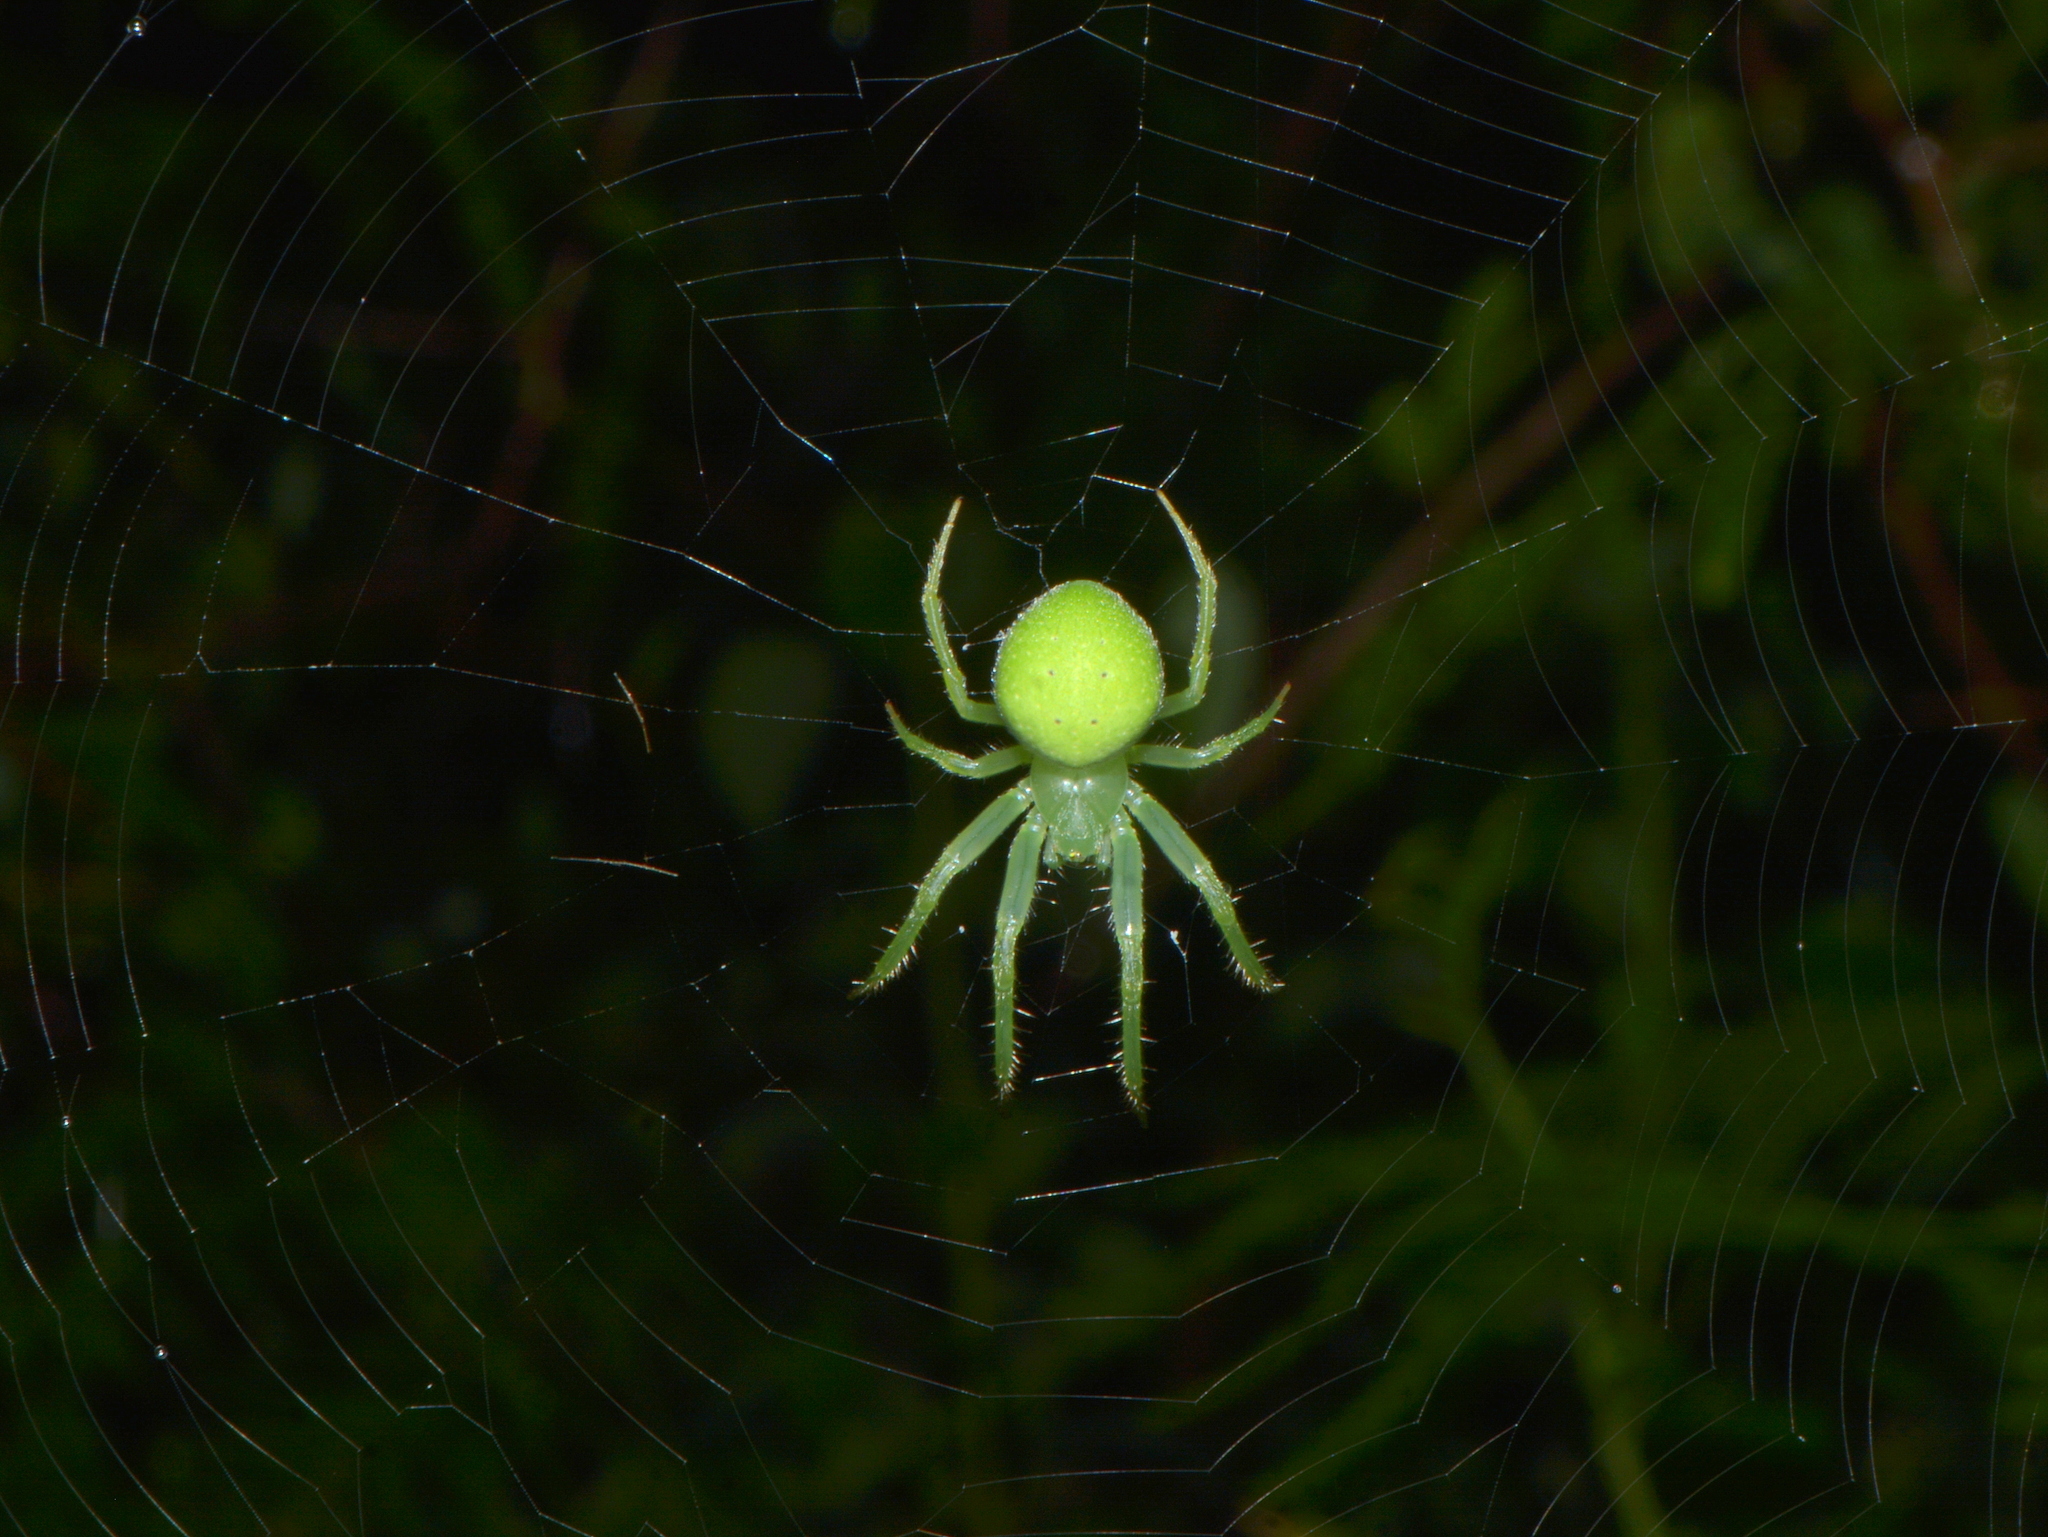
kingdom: Animalia
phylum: Arthropoda
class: Arachnida
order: Araneae
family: Araneidae
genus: Araneus
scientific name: Araneus uniformis
